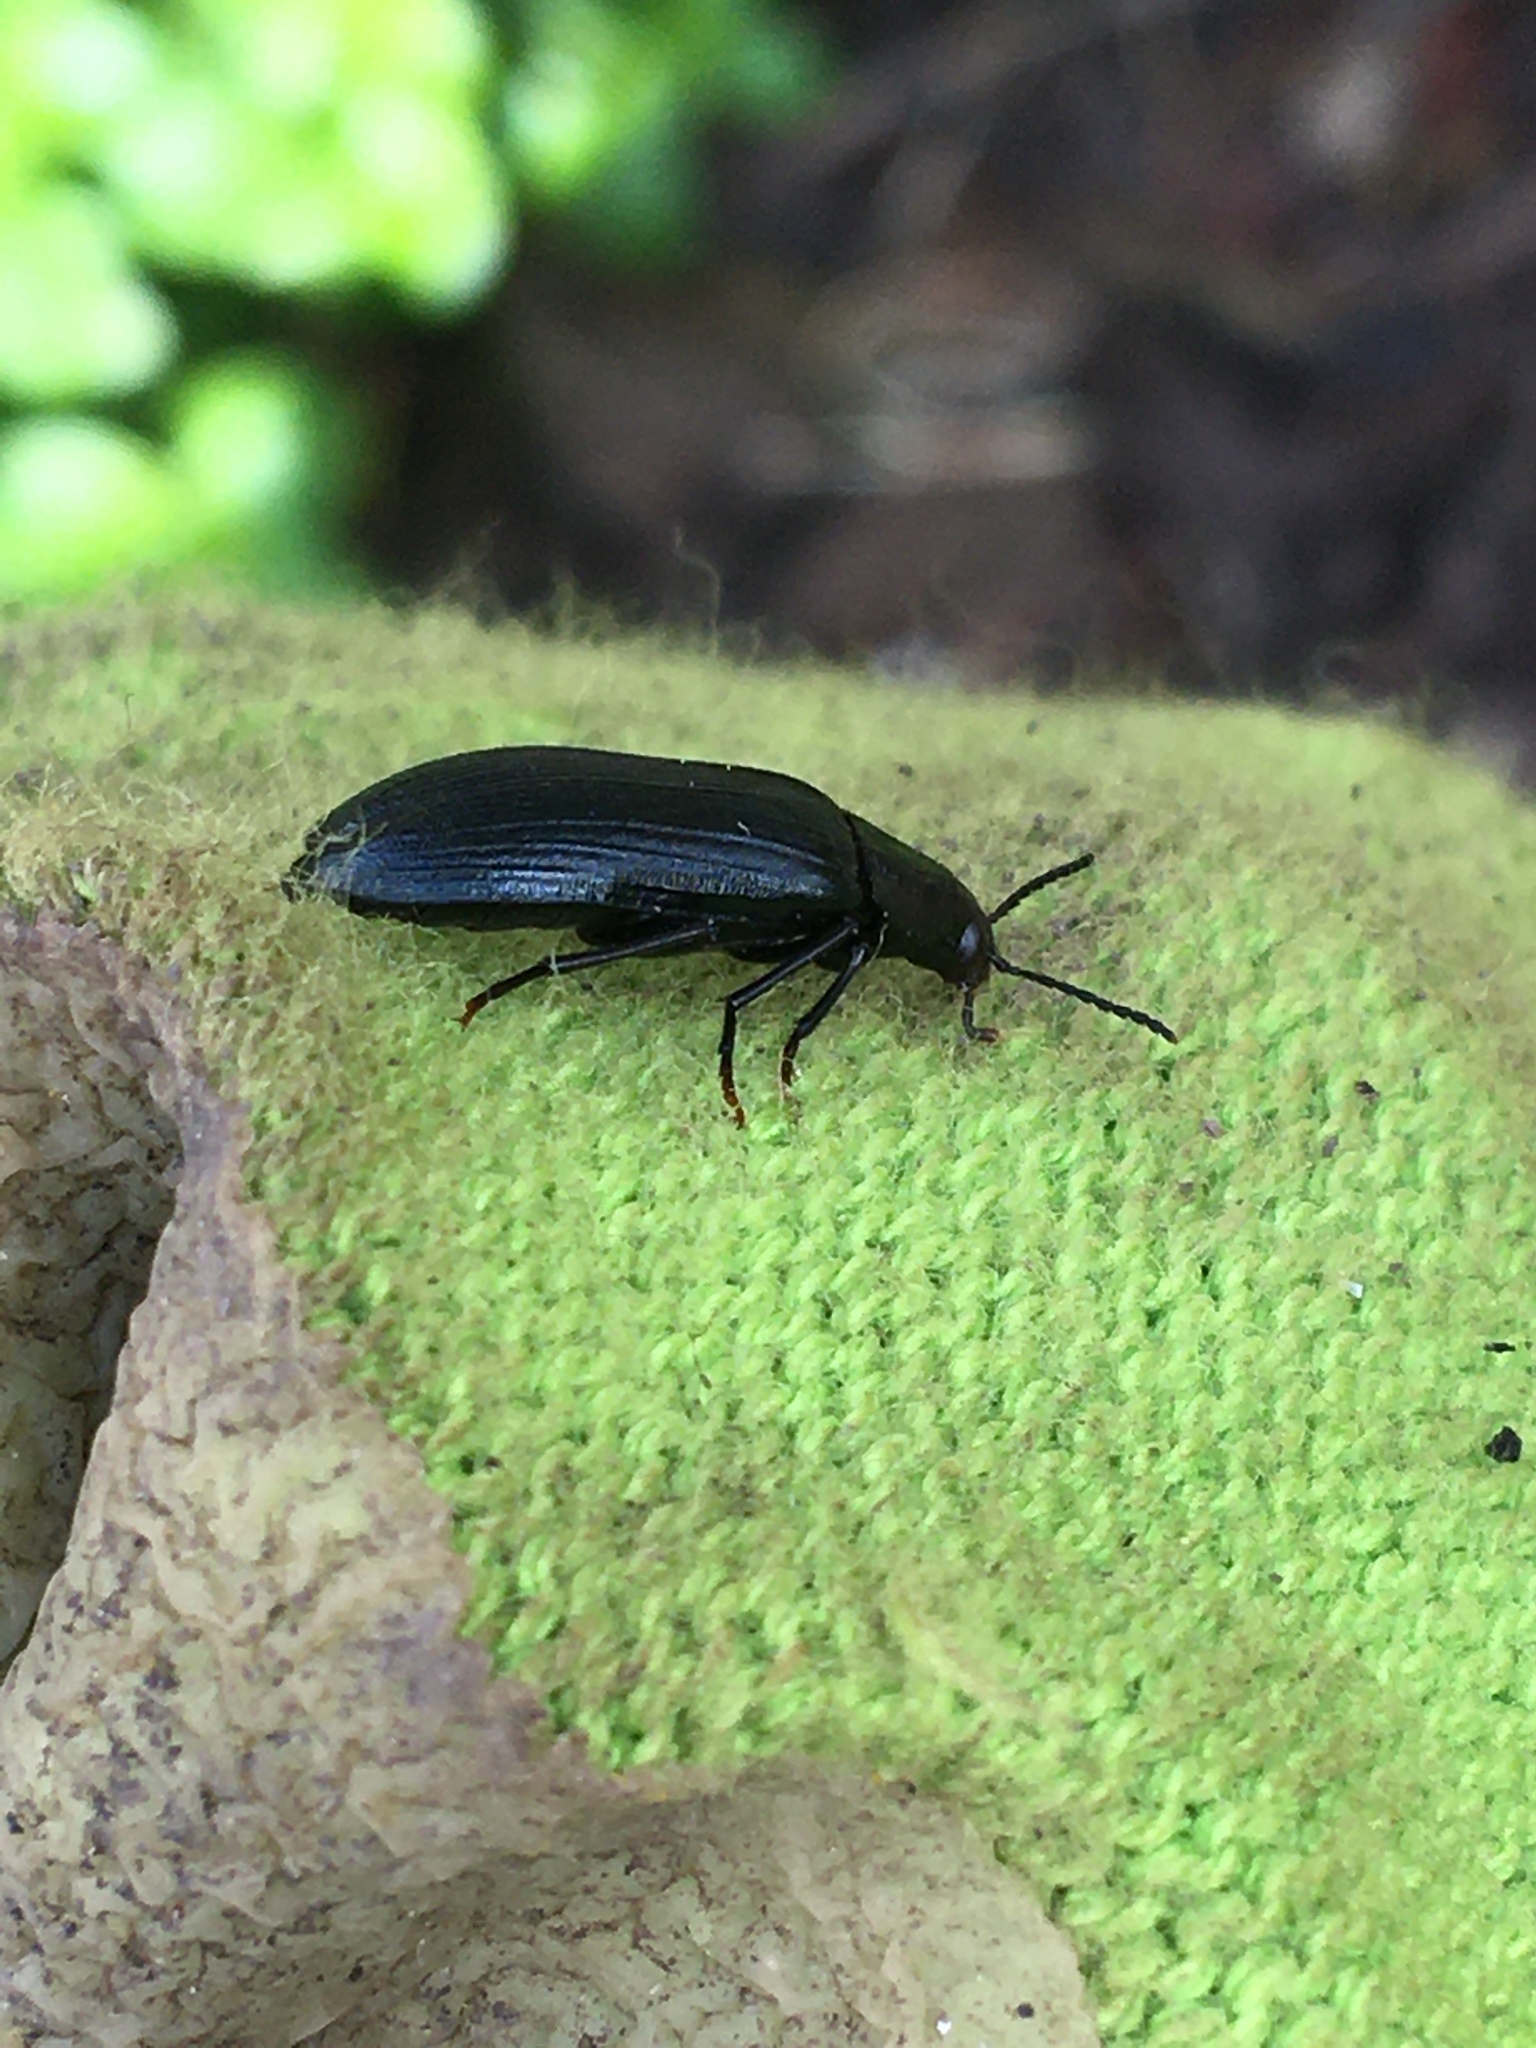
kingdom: Animalia
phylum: Arthropoda
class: Insecta
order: Coleoptera
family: Melandryidae
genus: Melandrya
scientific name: Melandrya caraboides
